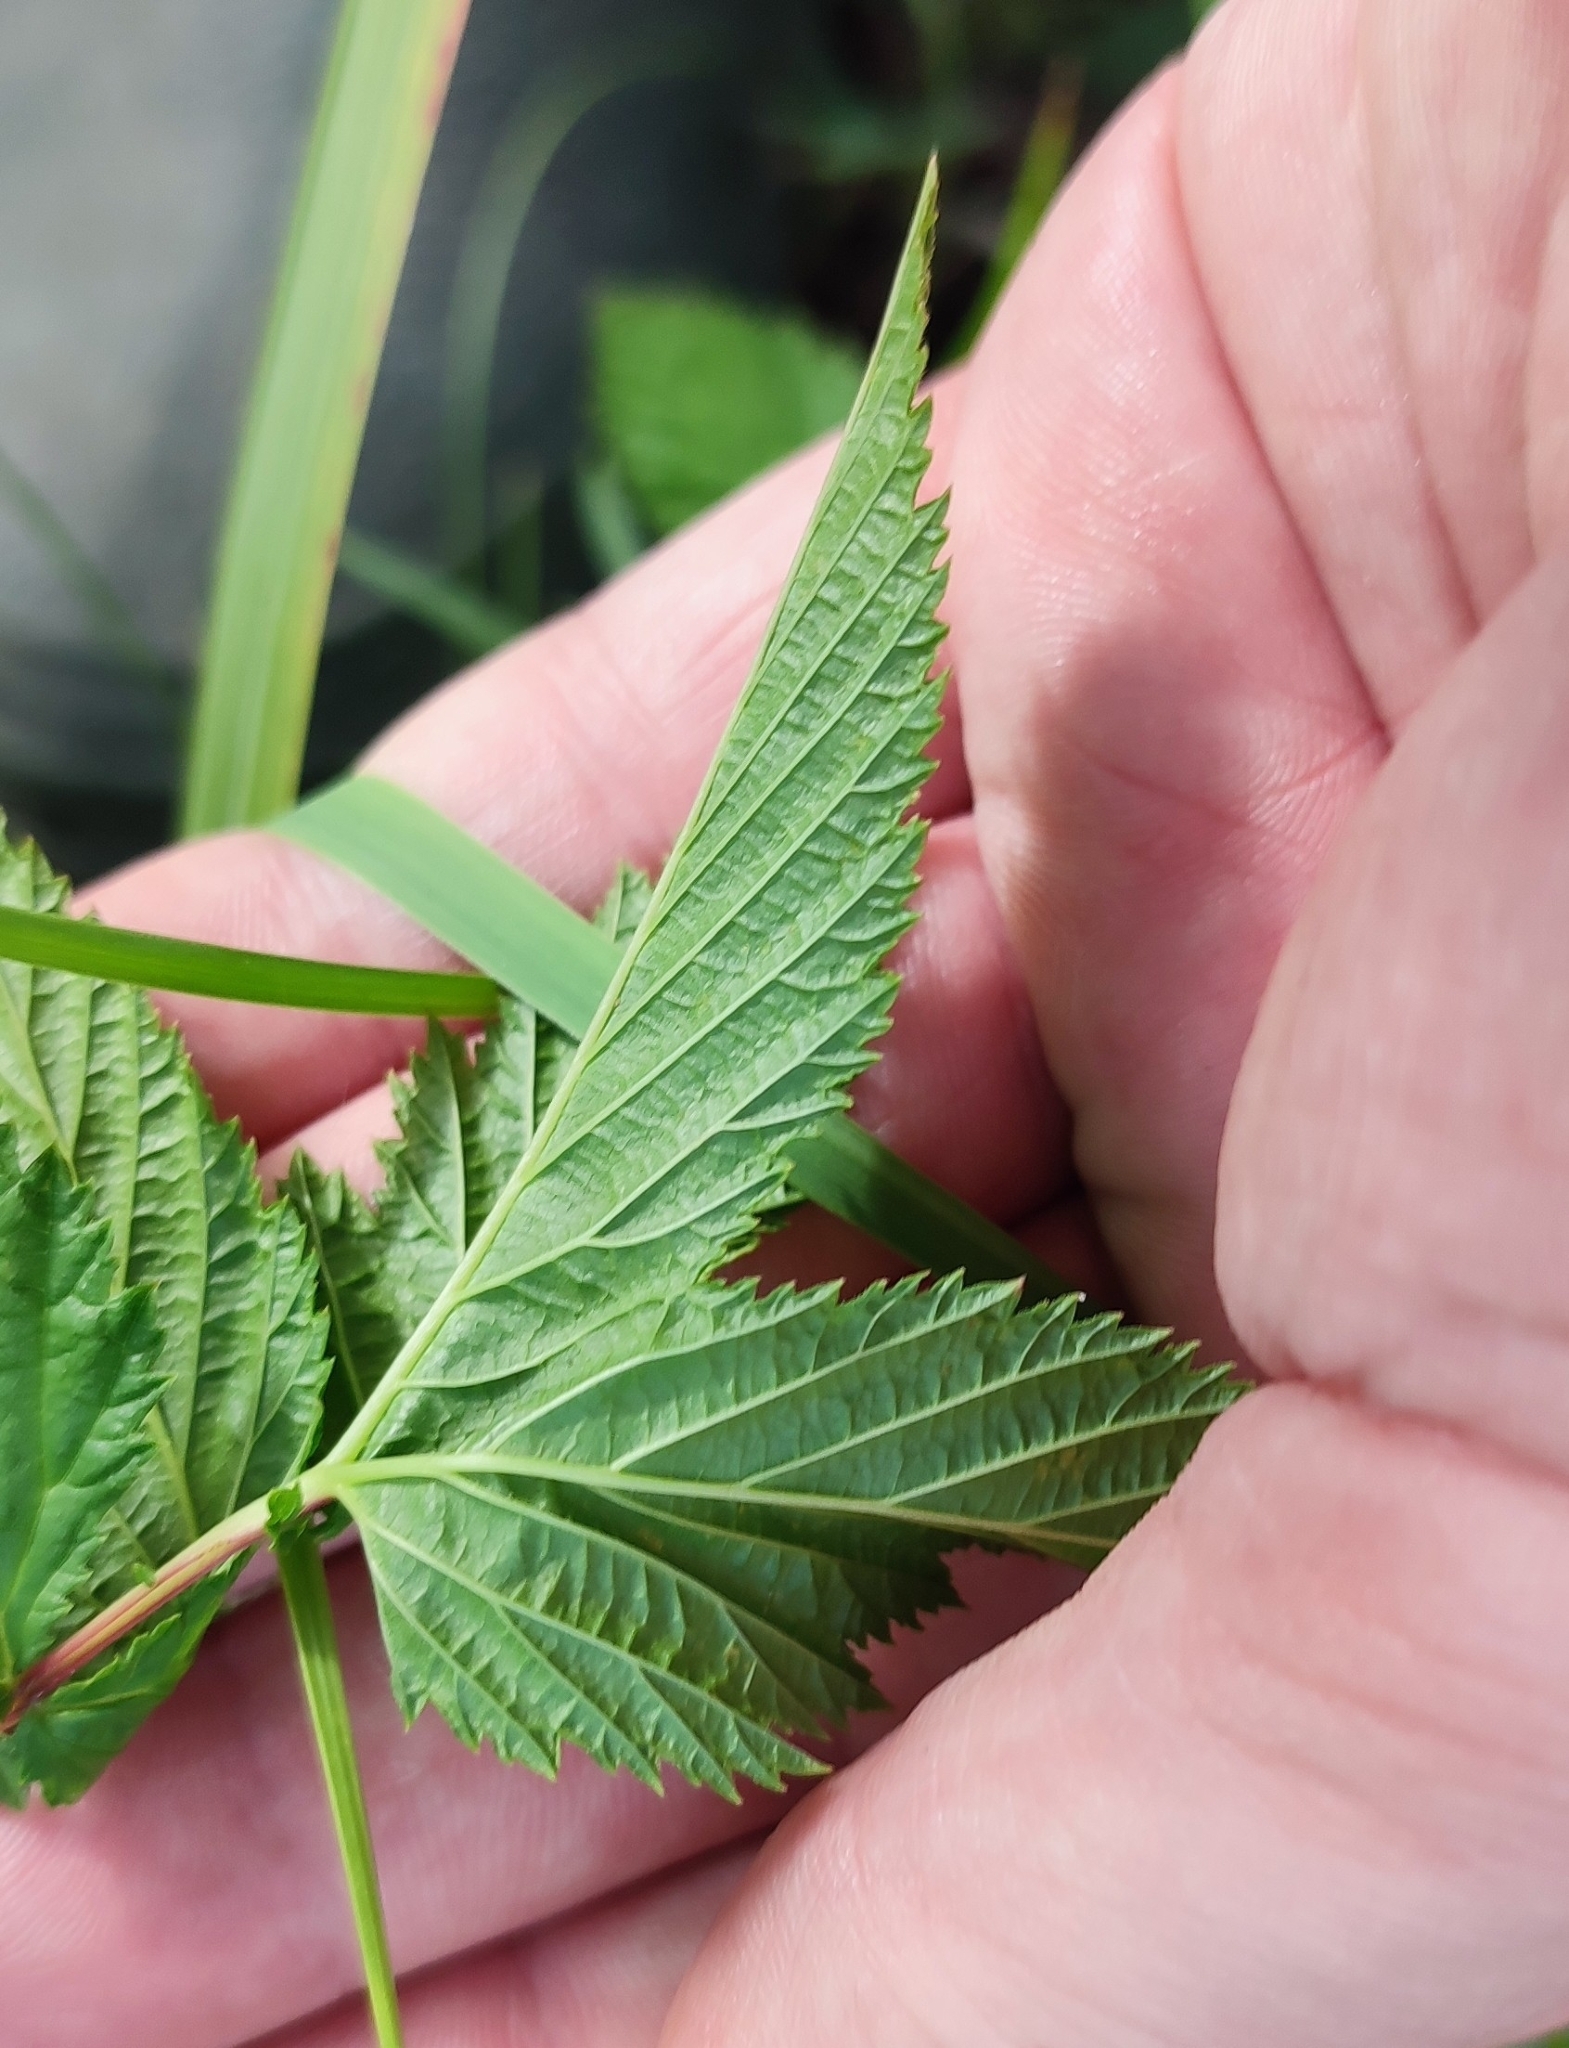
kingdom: Plantae
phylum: Tracheophyta
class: Magnoliopsida
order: Rosales
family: Rosaceae
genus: Filipendula
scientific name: Filipendula ulmaria
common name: Meadowsweet
